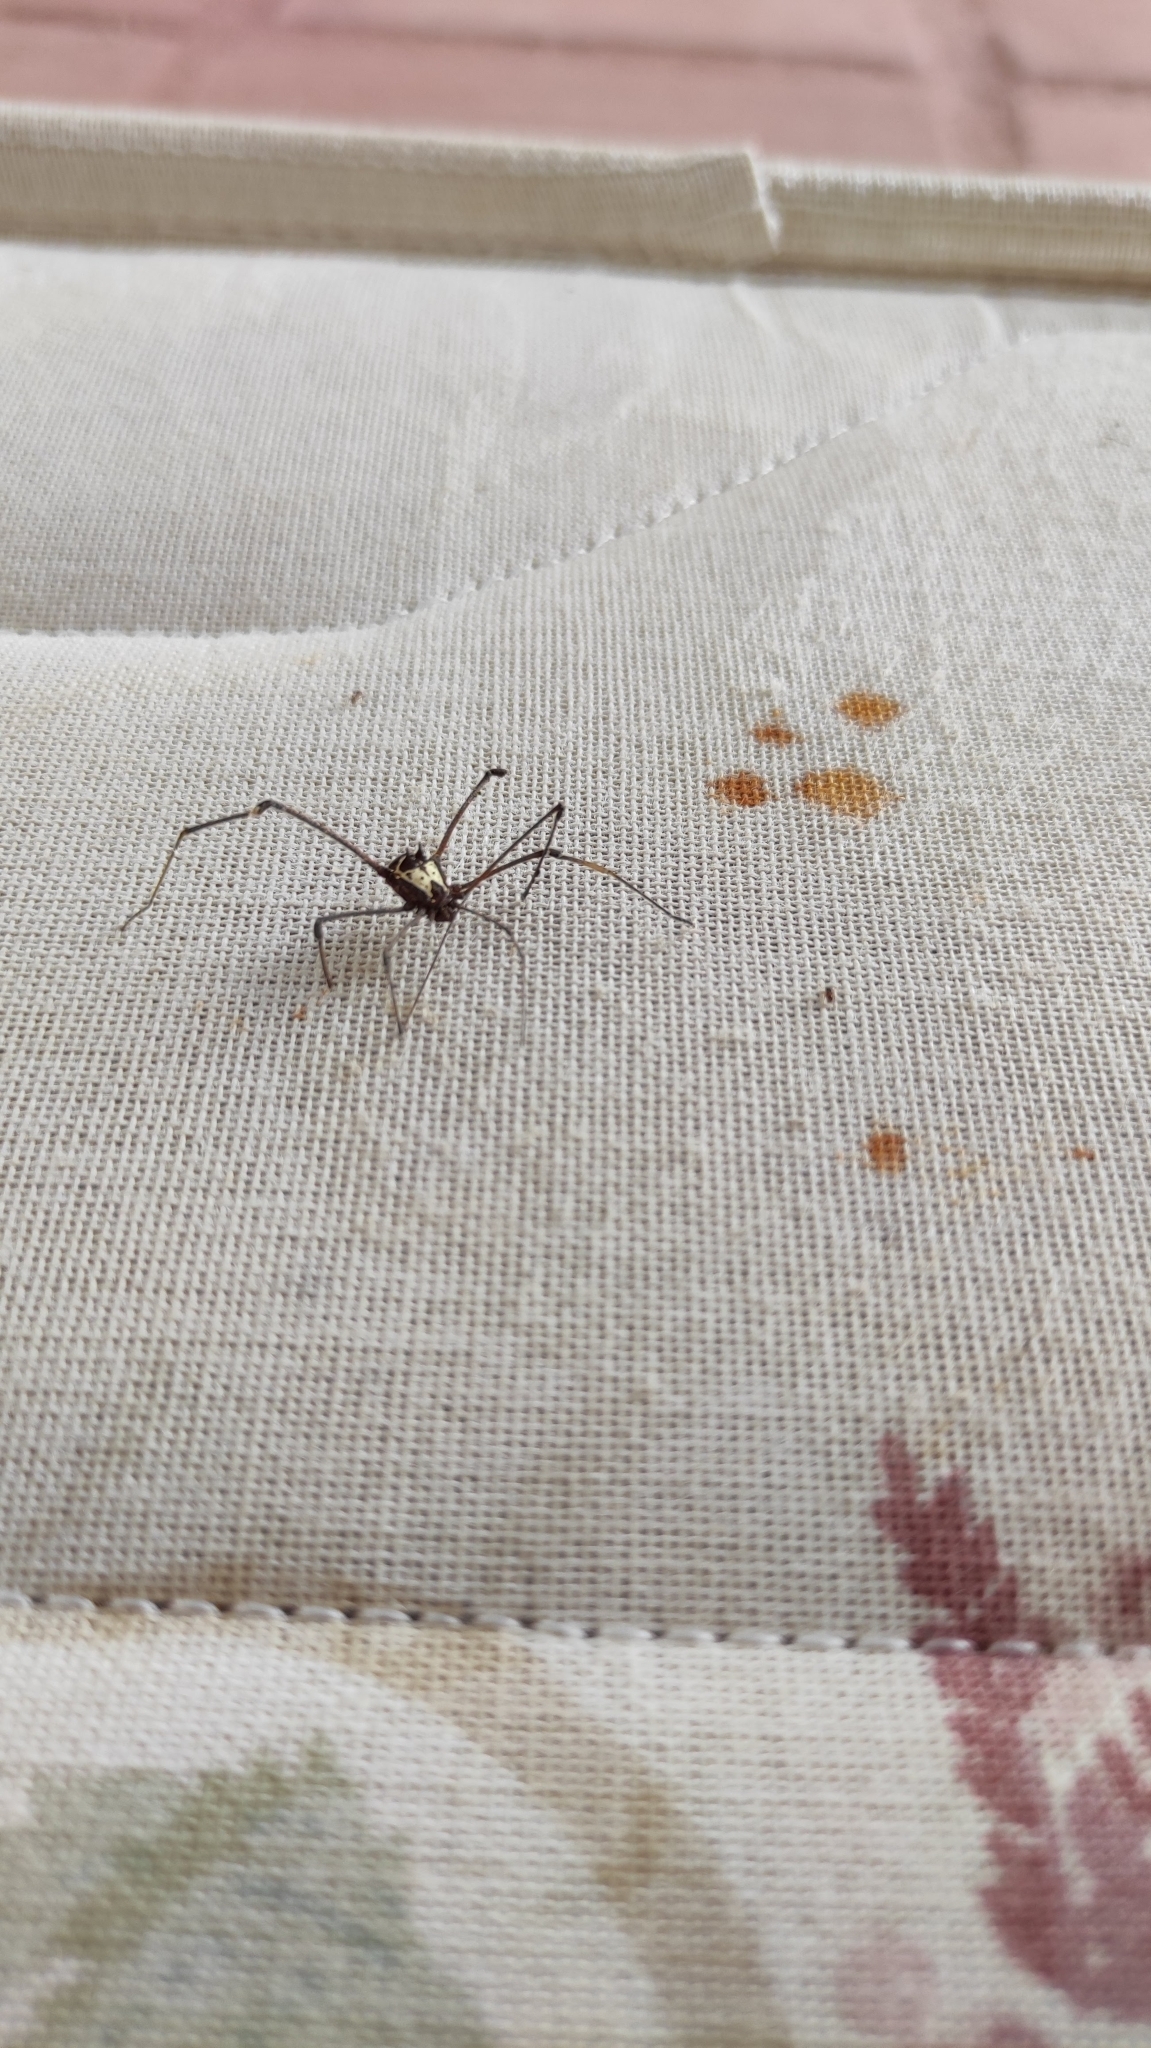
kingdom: Animalia
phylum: Arthropoda
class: Arachnida
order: Opiliones
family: Cosmetidae
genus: Cynortellana
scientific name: Cynortellana pulchra
